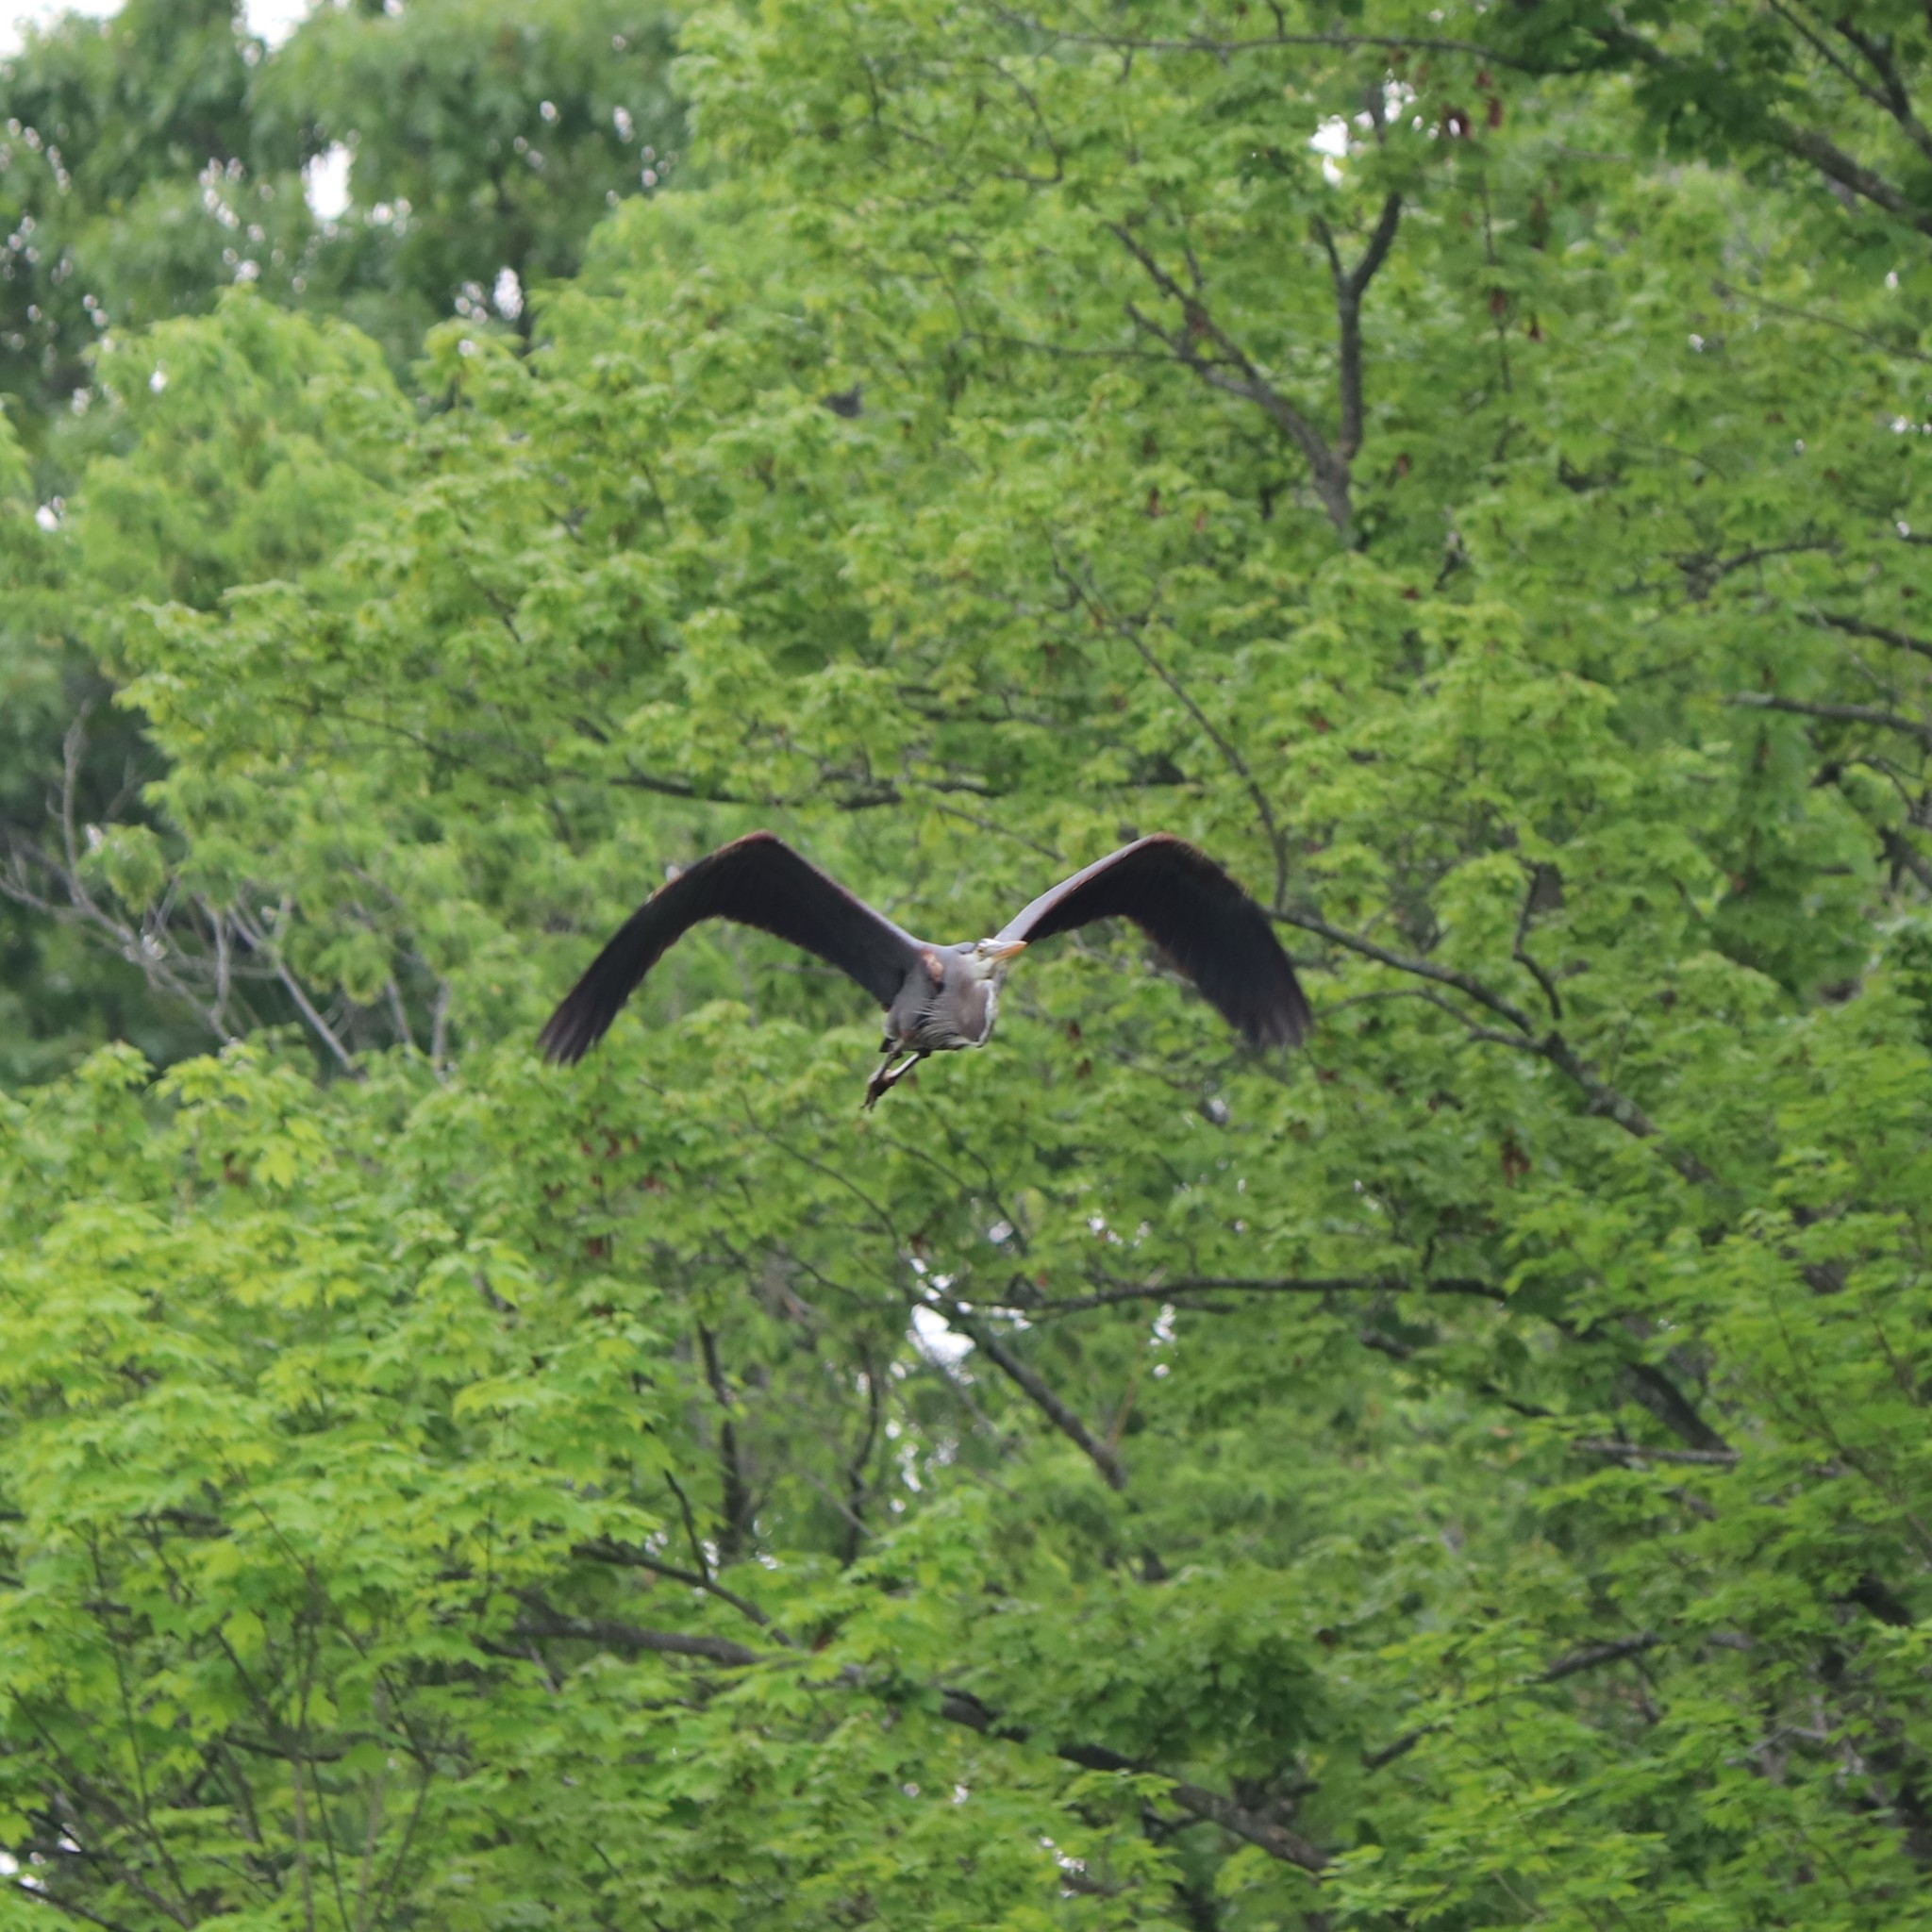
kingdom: Animalia
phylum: Chordata
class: Aves
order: Pelecaniformes
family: Ardeidae
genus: Ardea
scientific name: Ardea herodias
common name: Great blue heron
